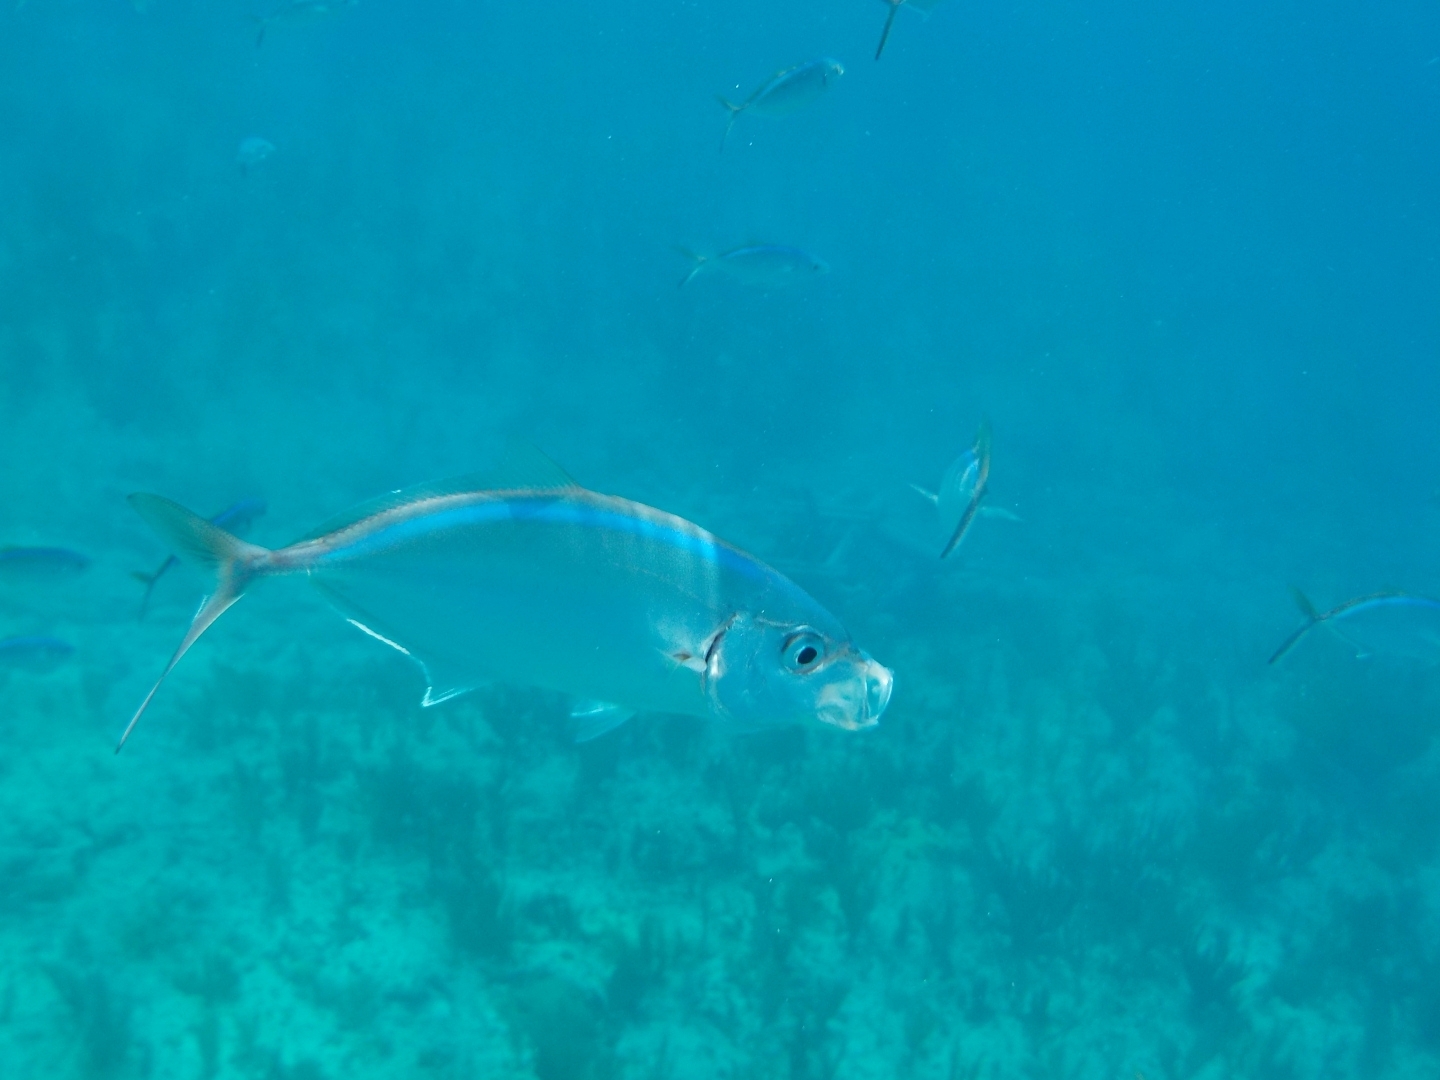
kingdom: Animalia
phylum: Chordata
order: Perciformes
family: Carangidae
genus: Caranx
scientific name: Caranx ruber
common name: Bar jack
